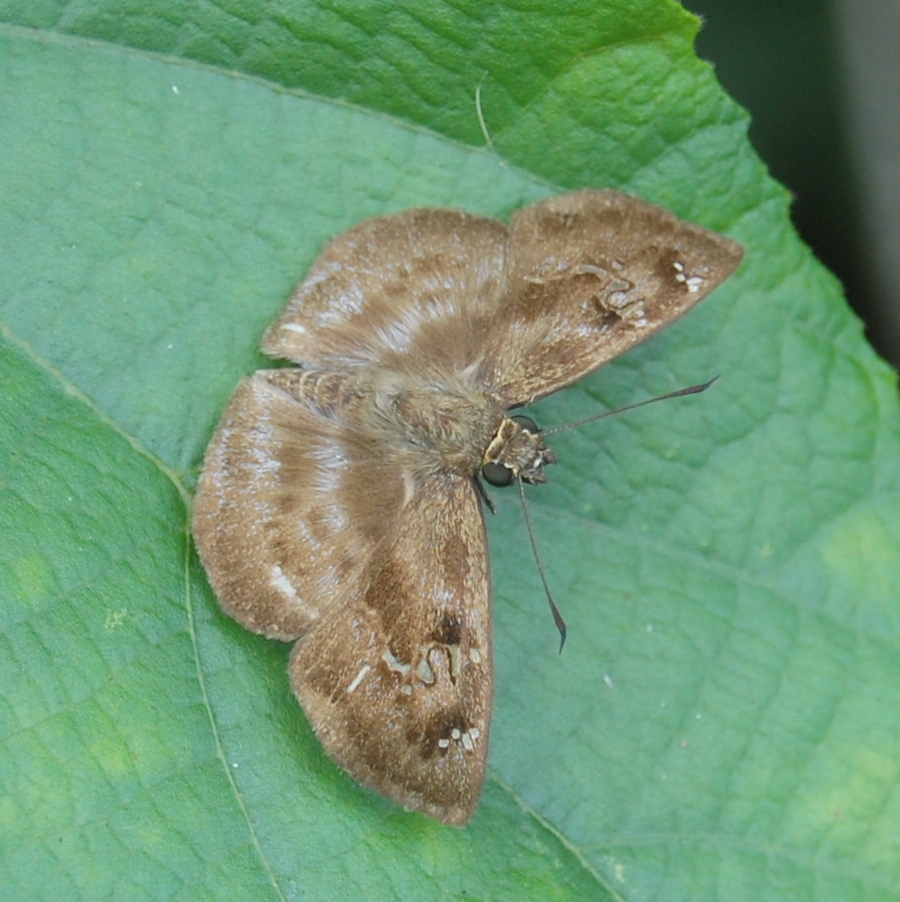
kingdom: Animalia
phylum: Arthropoda
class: Insecta
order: Lepidoptera
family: Hesperiidae
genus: Quadrus
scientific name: Quadrus ulucida
